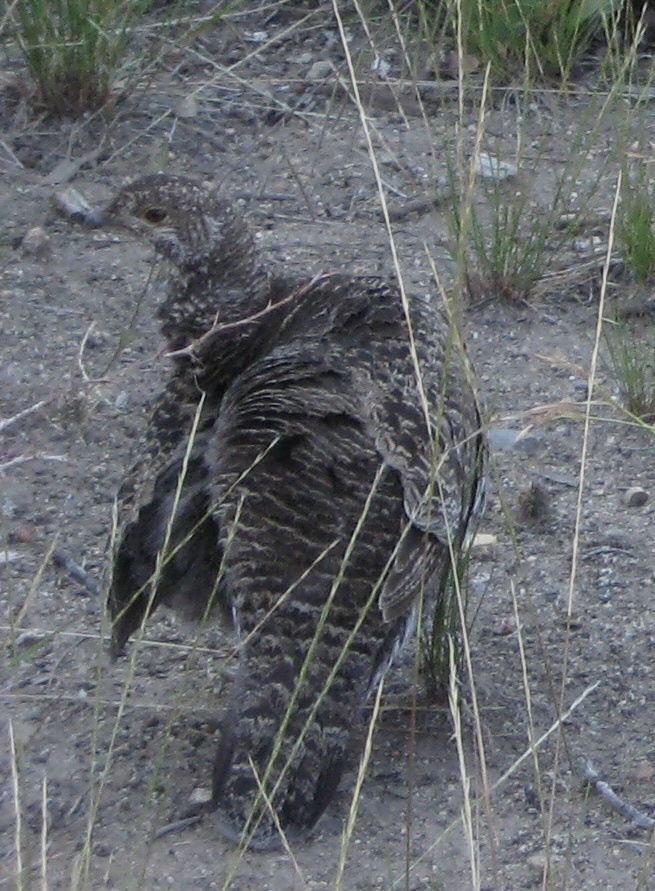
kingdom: Animalia
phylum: Chordata
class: Aves
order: Galliformes
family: Phasianidae
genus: Dendragapus
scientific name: Dendragapus fuliginosus
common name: Sooty grouse
